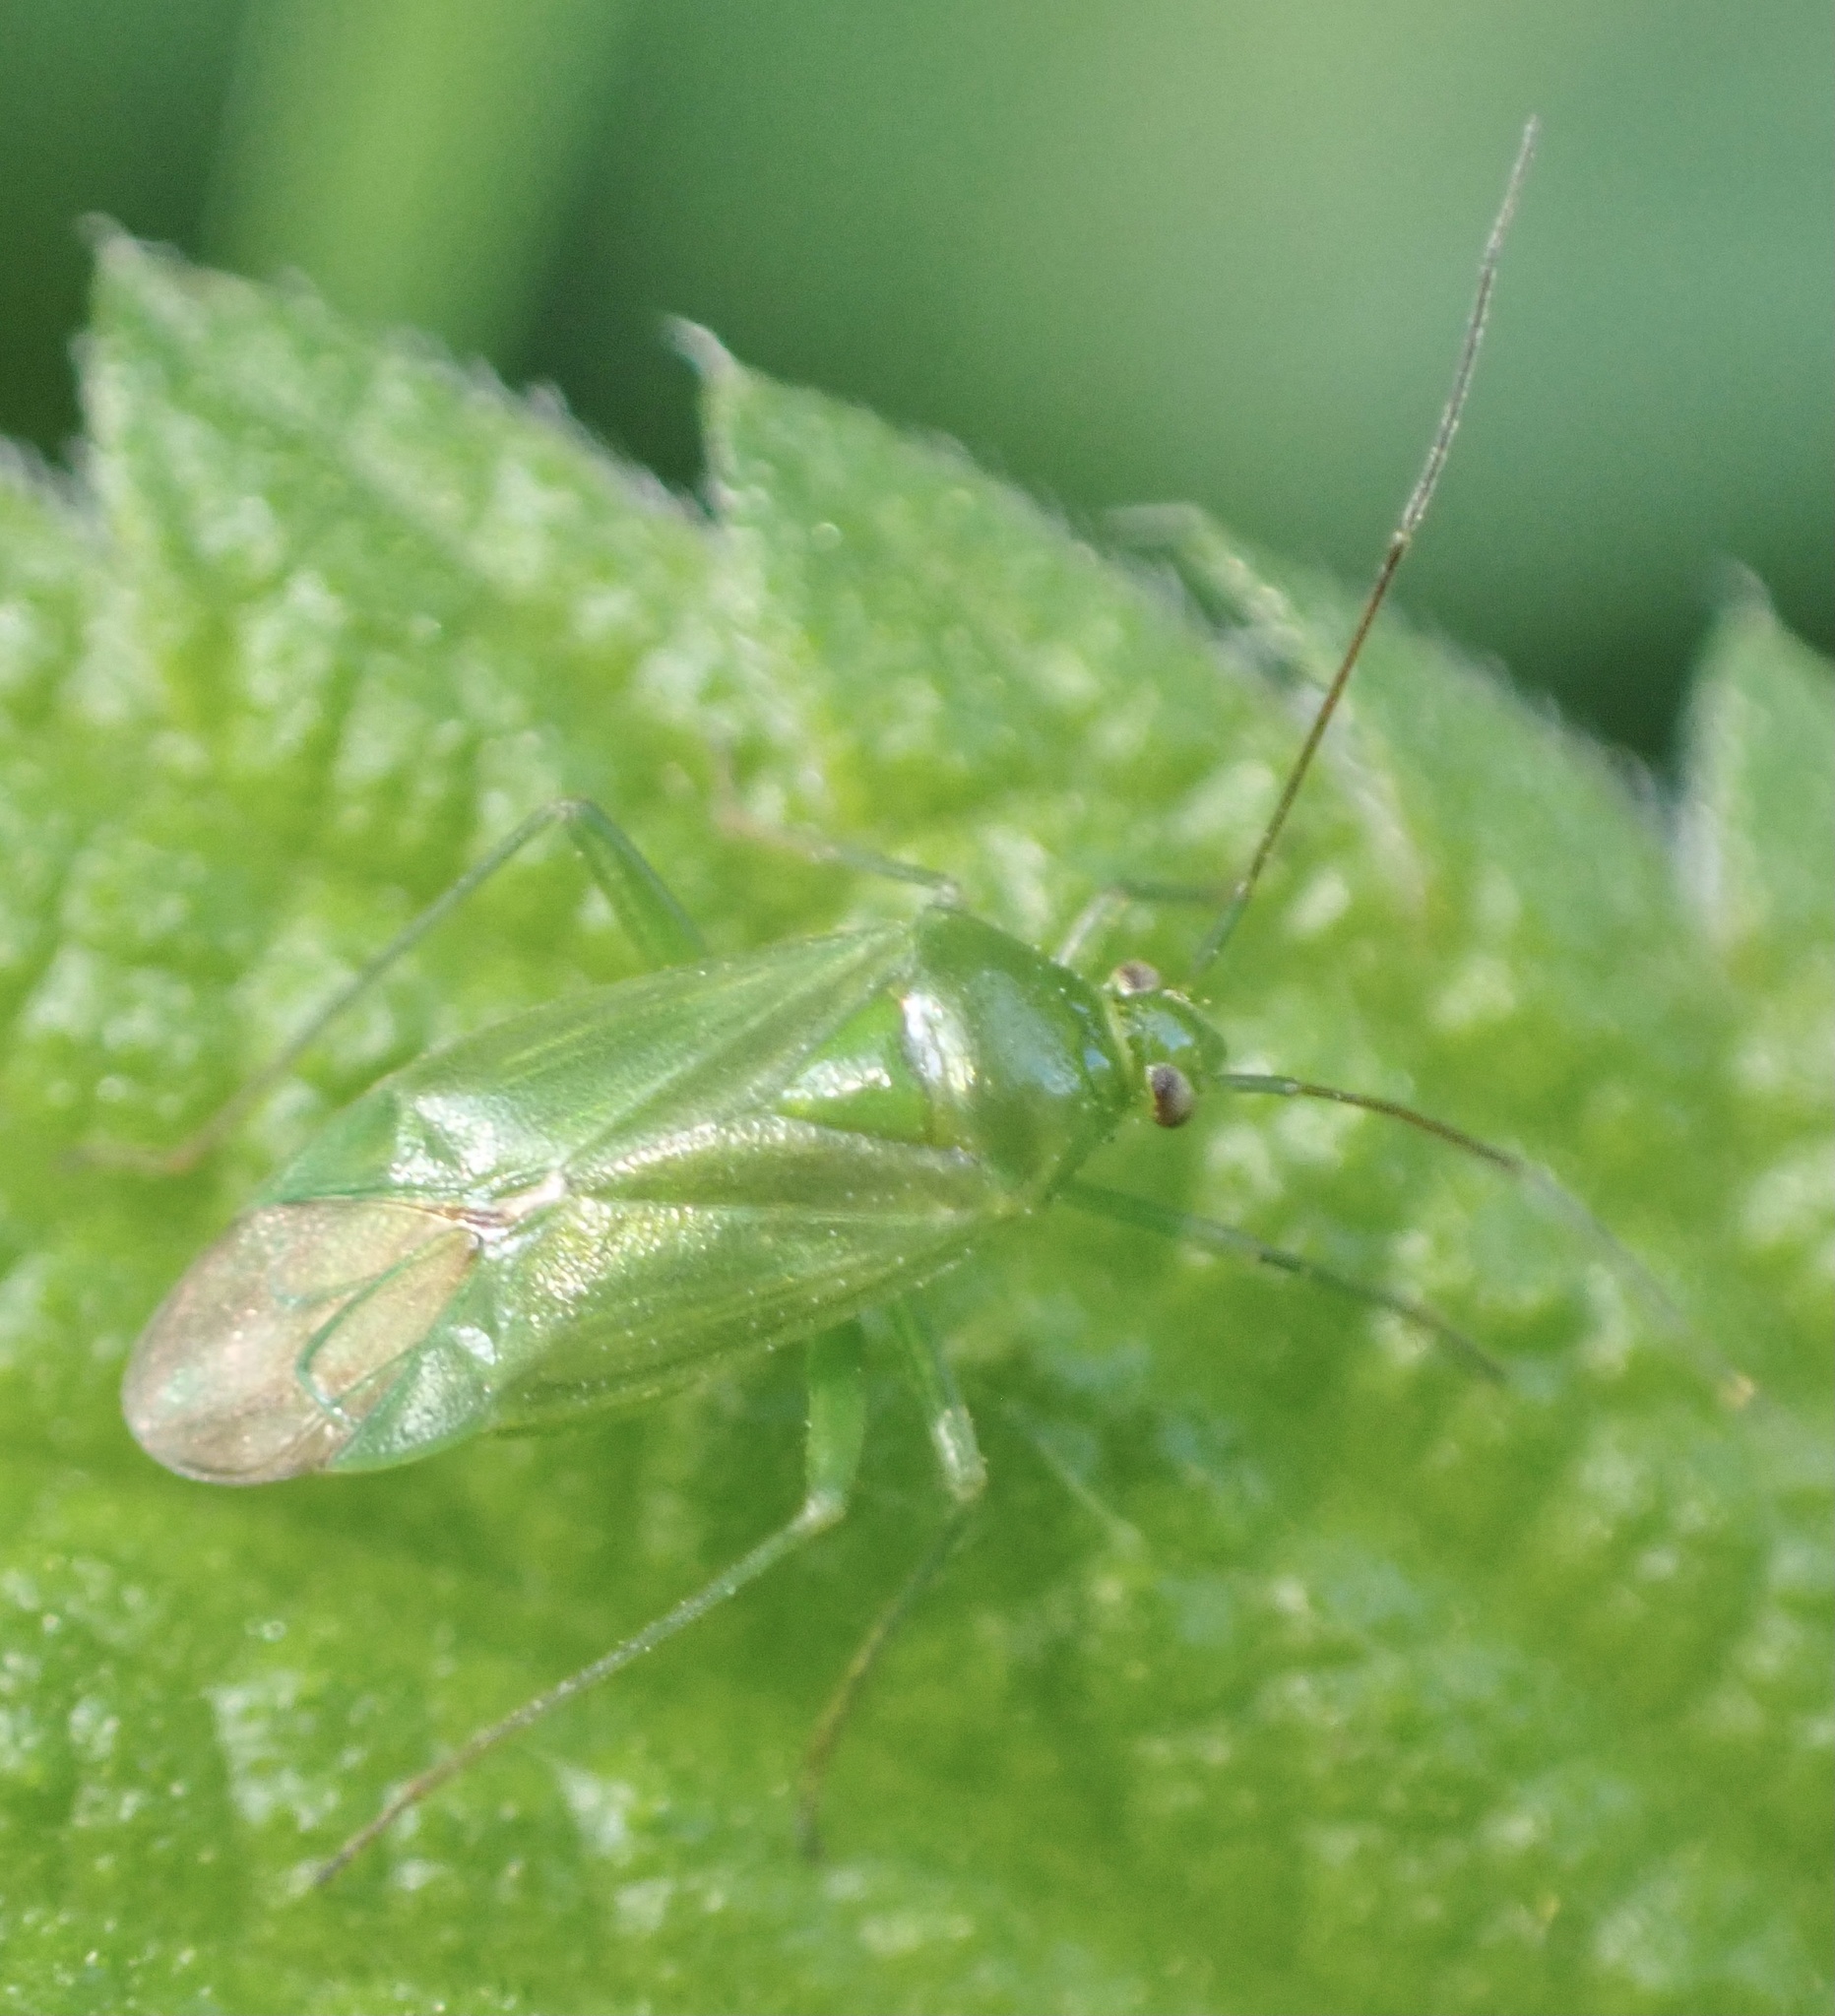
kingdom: Animalia
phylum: Arthropoda
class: Insecta
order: Hemiptera
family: Miridae
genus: Lygocoris
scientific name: Lygocoris pabulinus
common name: Common green capsid
